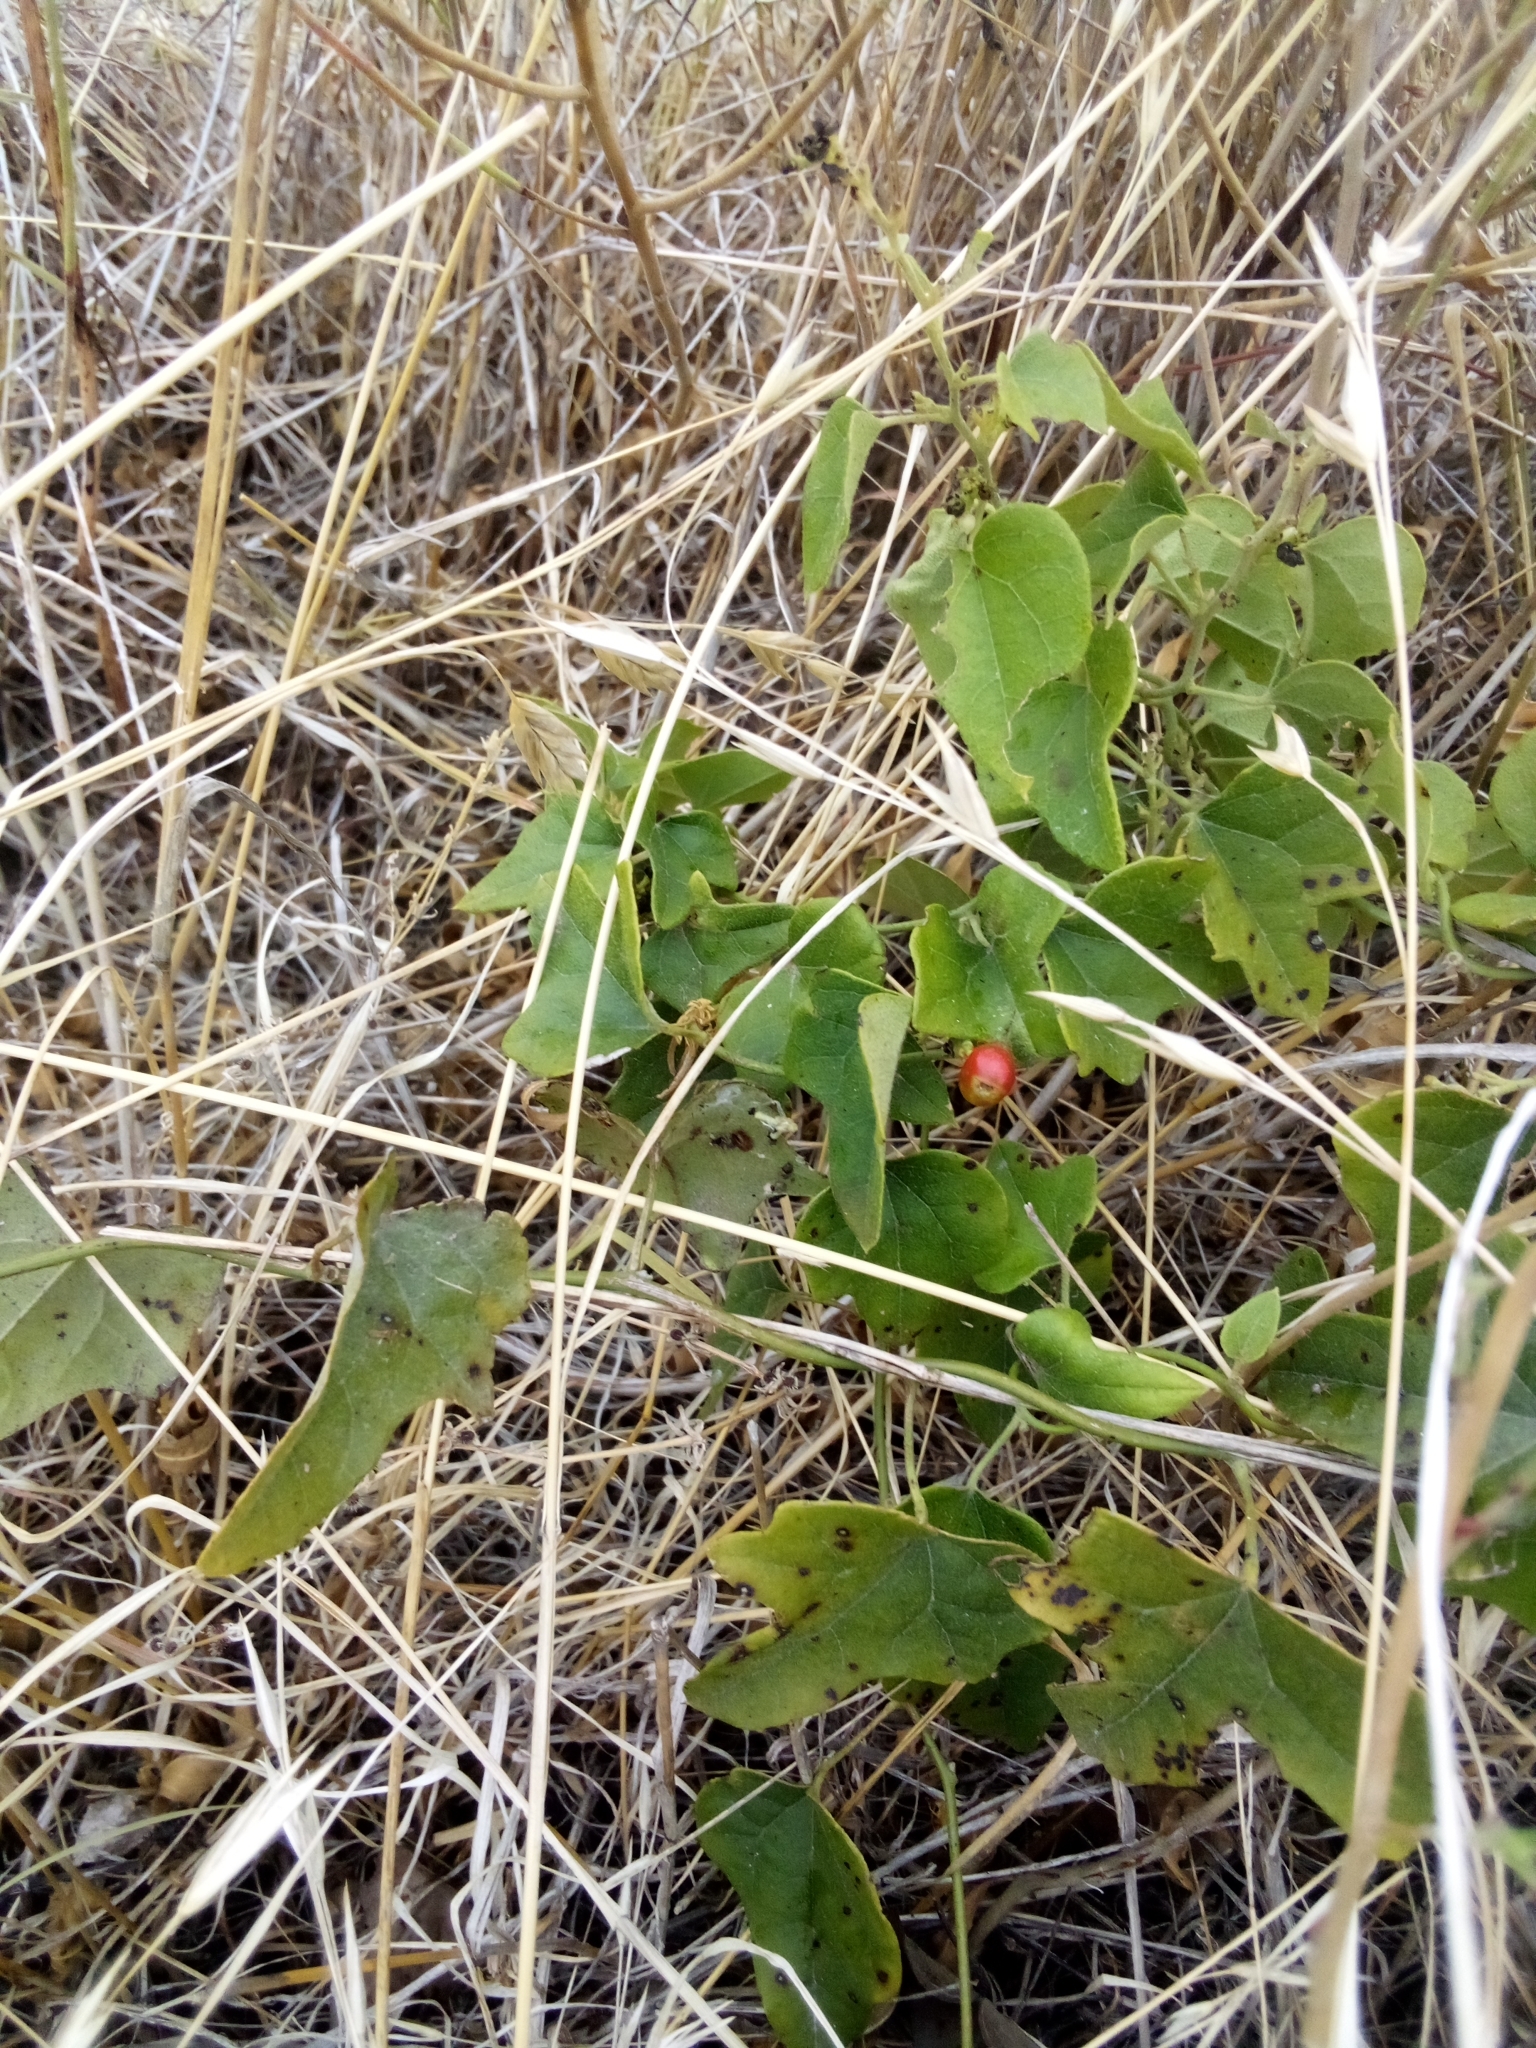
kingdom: Plantae
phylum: Tracheophyta
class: Magnoliopsida
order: Ranunculales
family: Menispermaceae
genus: Cocculus
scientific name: Cocculus carolinus
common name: Carolina moonseed
